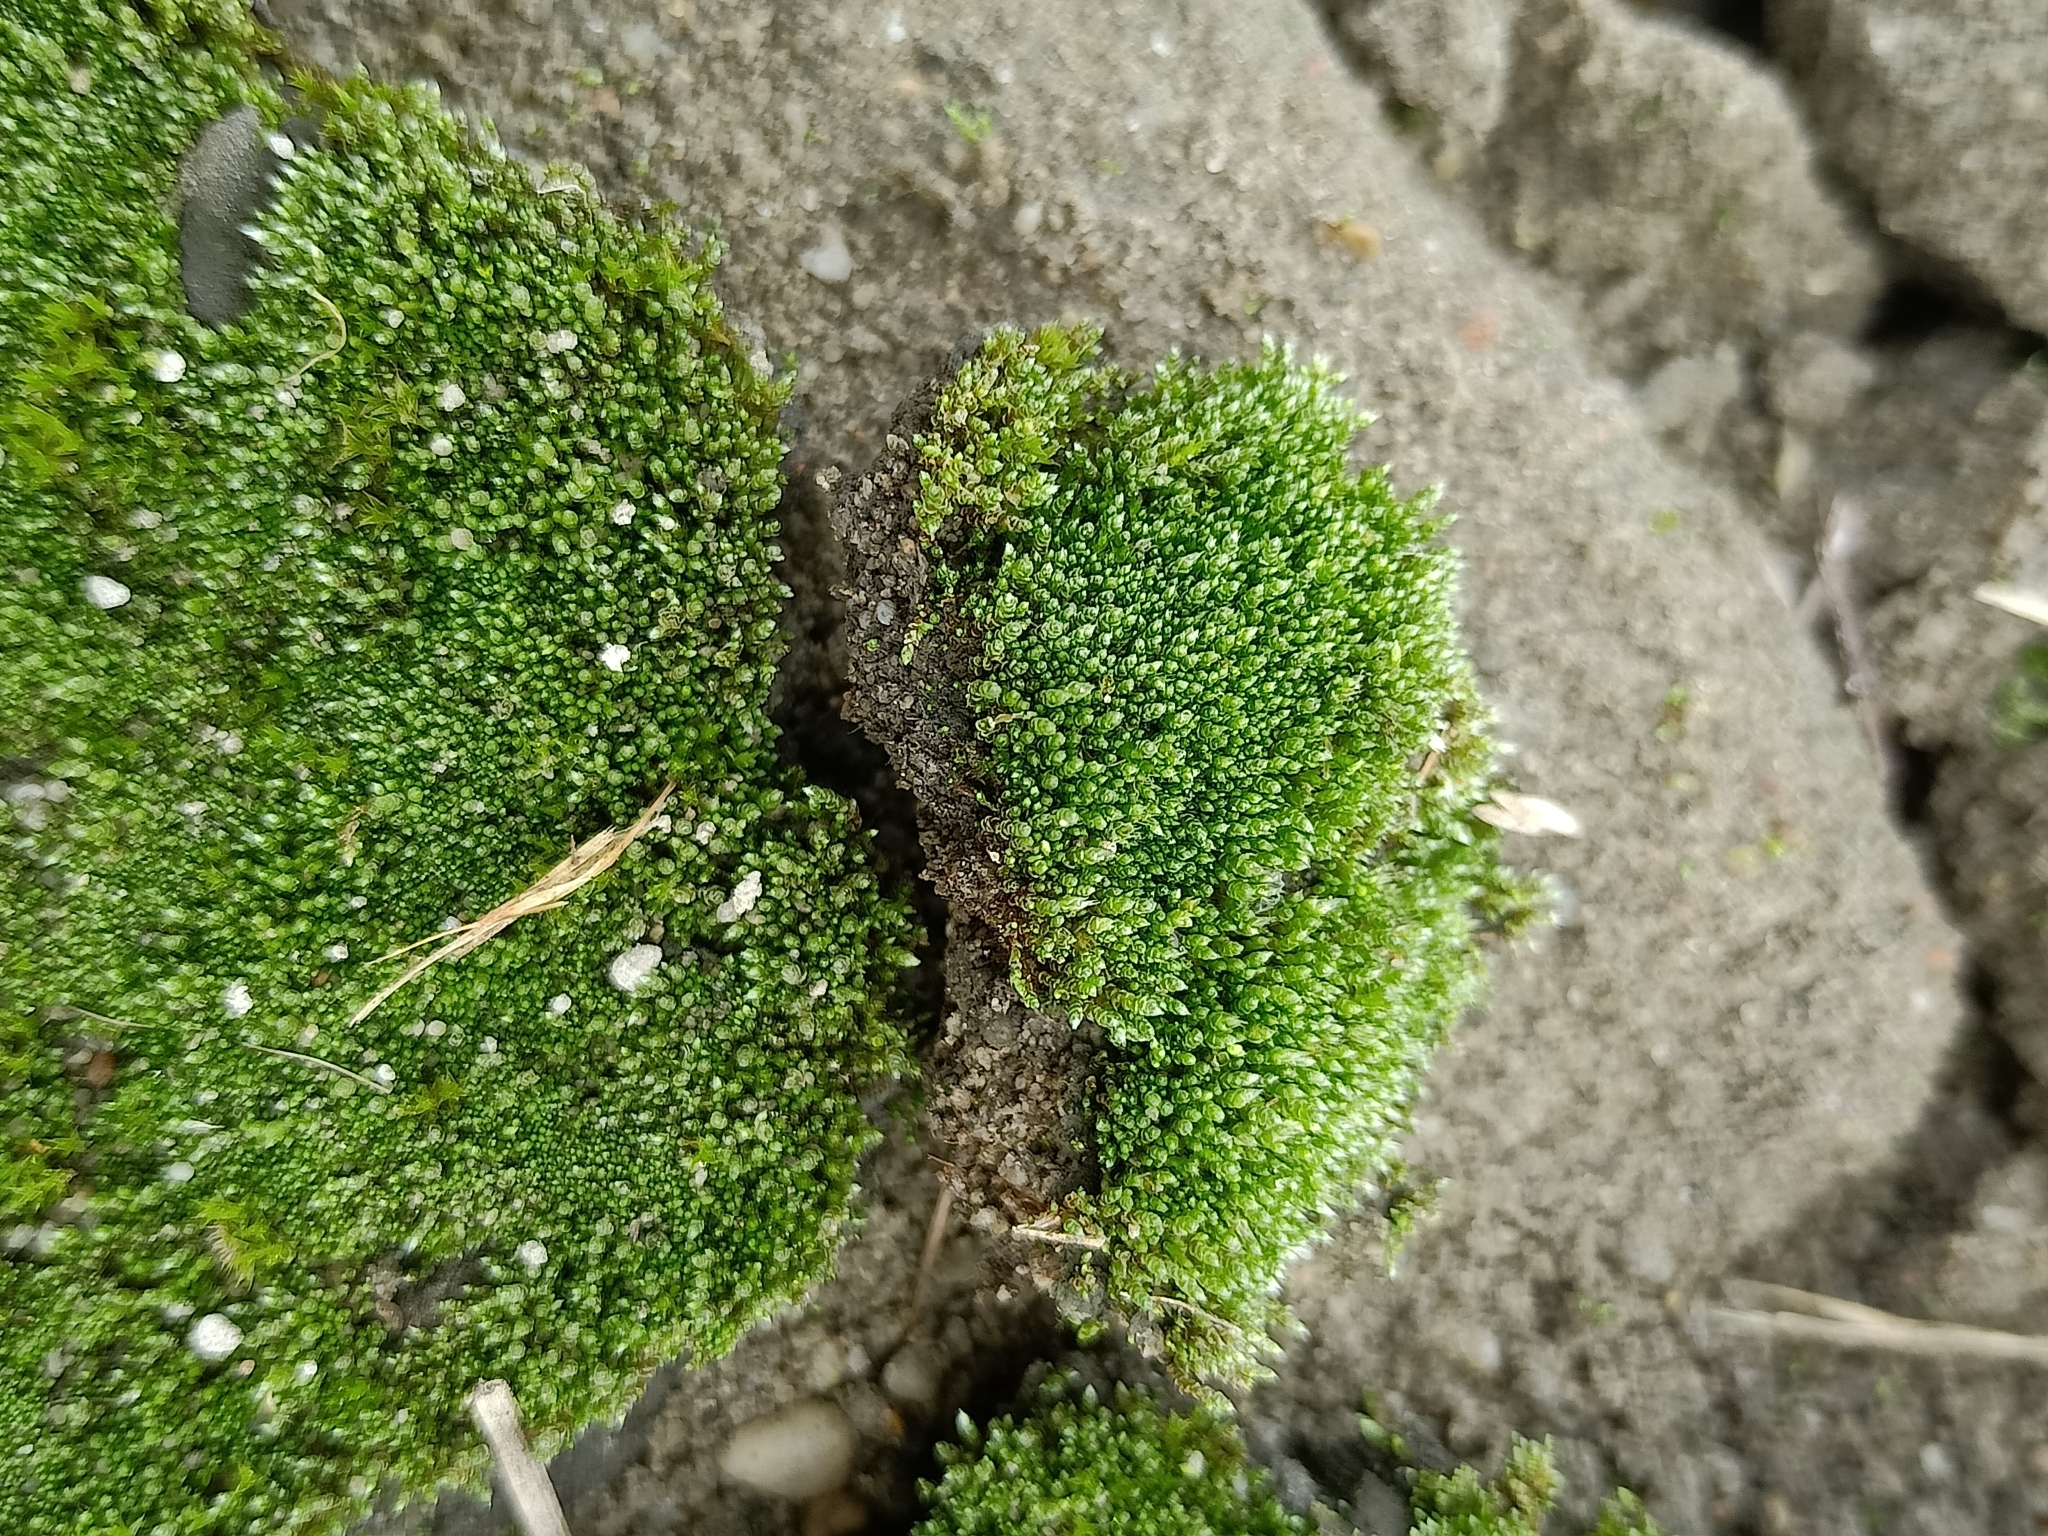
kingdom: Plantae
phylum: Bryophyta
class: Bryopsida
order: Bryales
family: Bryaceae
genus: Bryum
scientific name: Bryum argenteum
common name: Silver-moss
